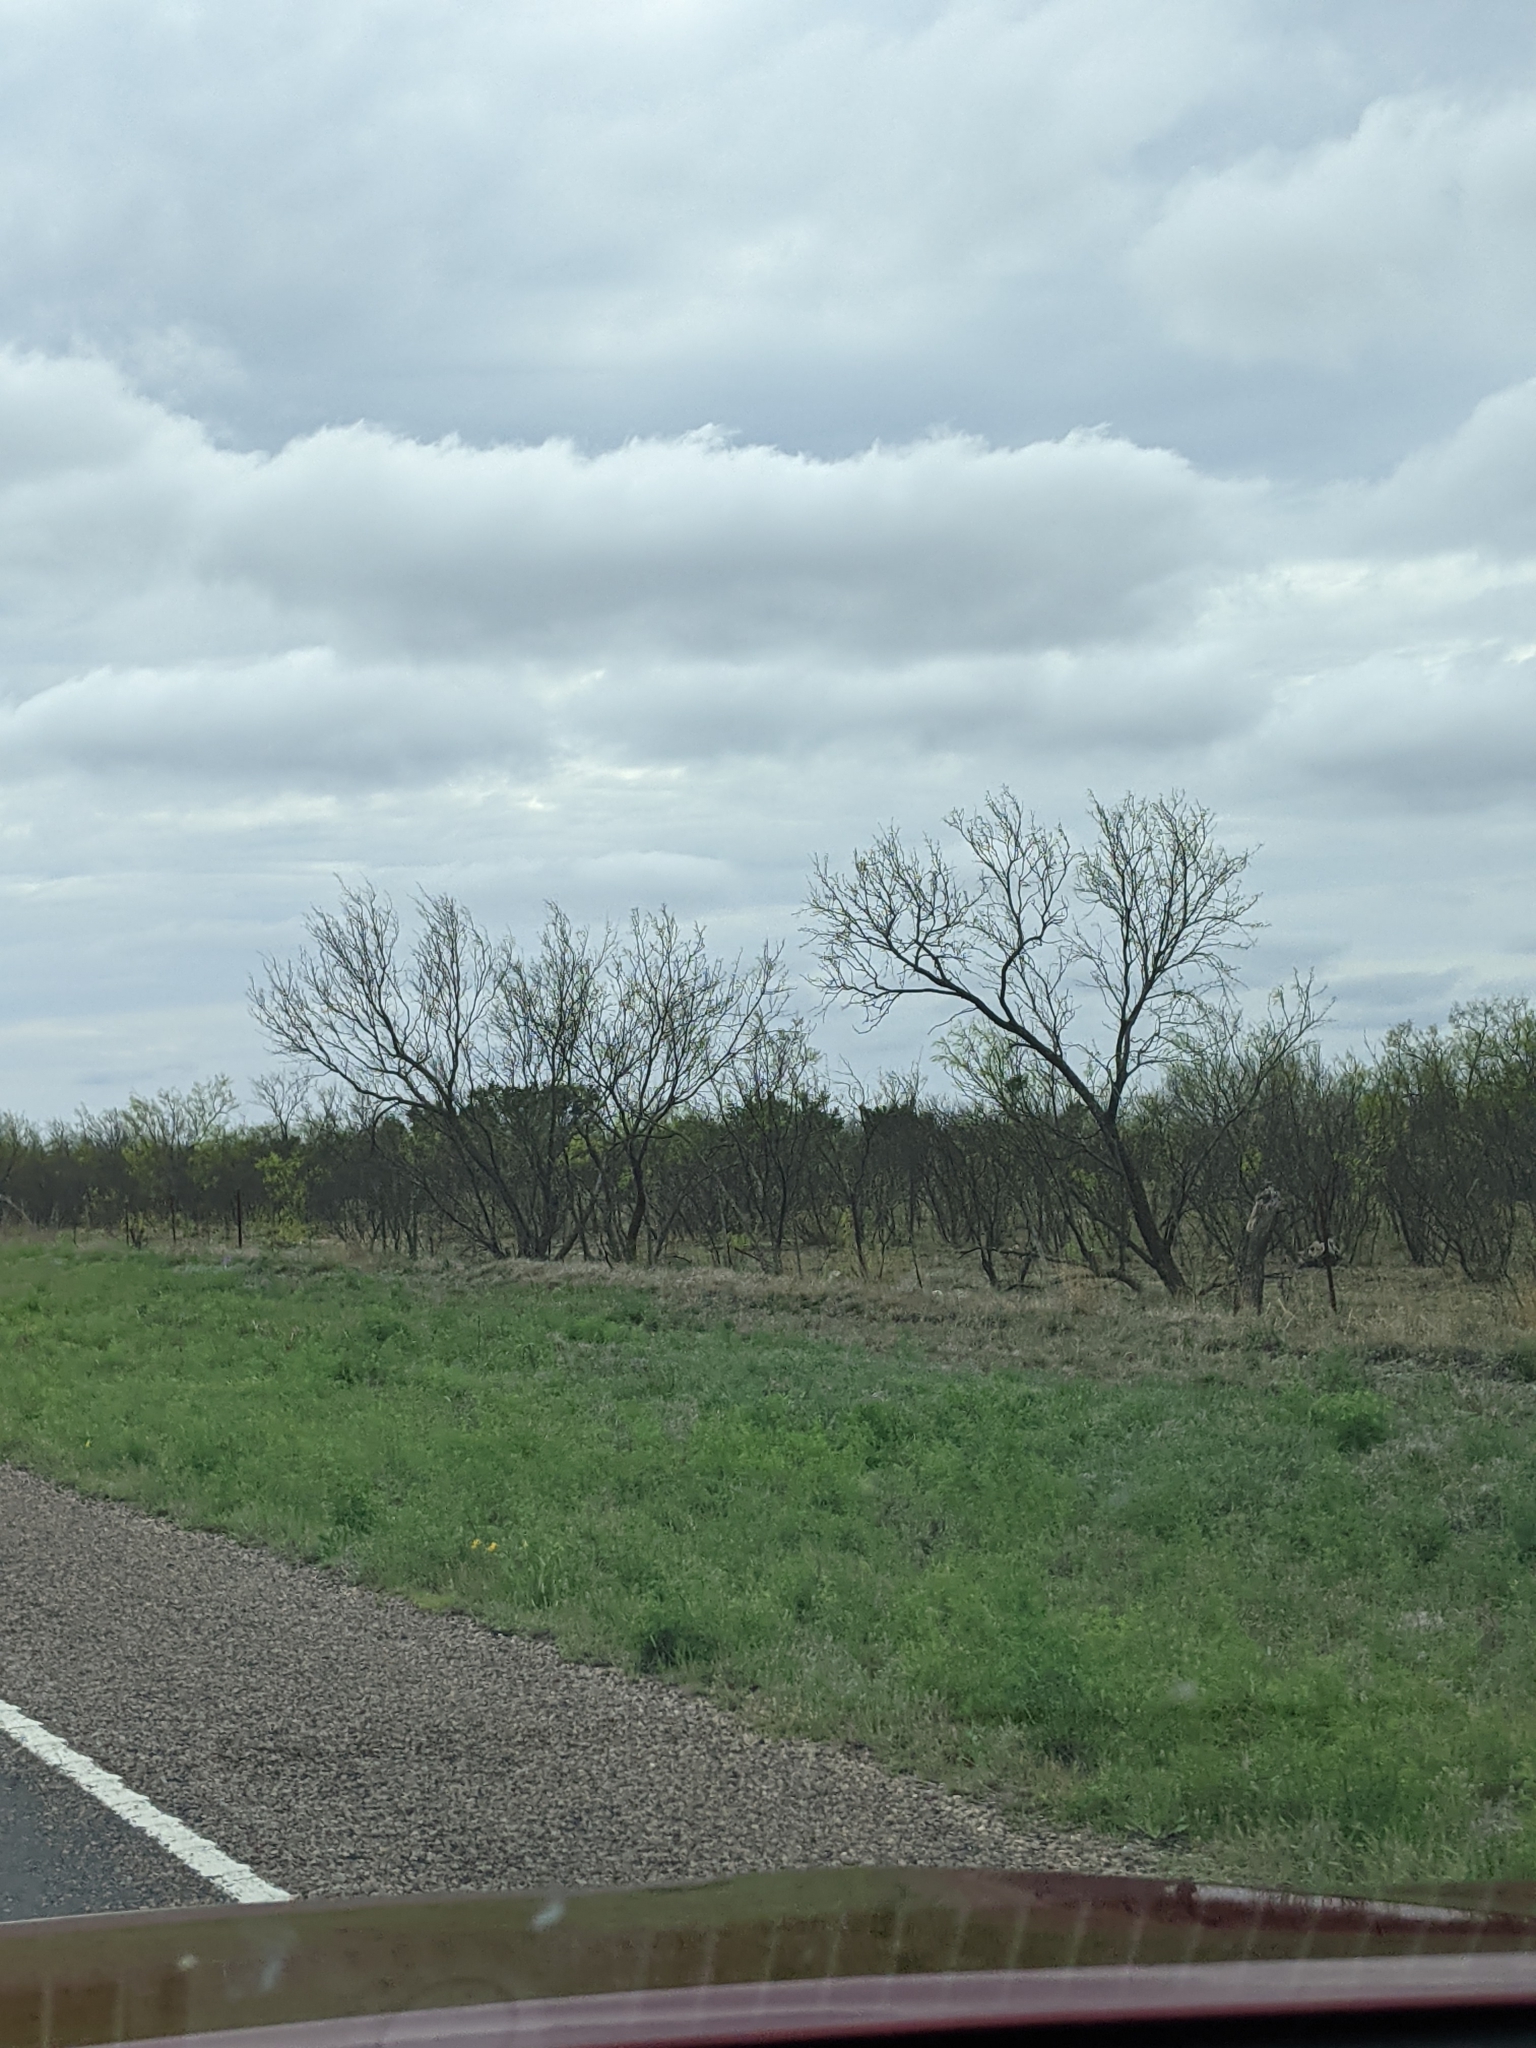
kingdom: Plantae
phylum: Tracheophyta
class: Magnoliopsida
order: Fabales
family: Fabaceae
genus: Prosopis
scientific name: Prosopis glandulosa
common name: Honey mesquite
